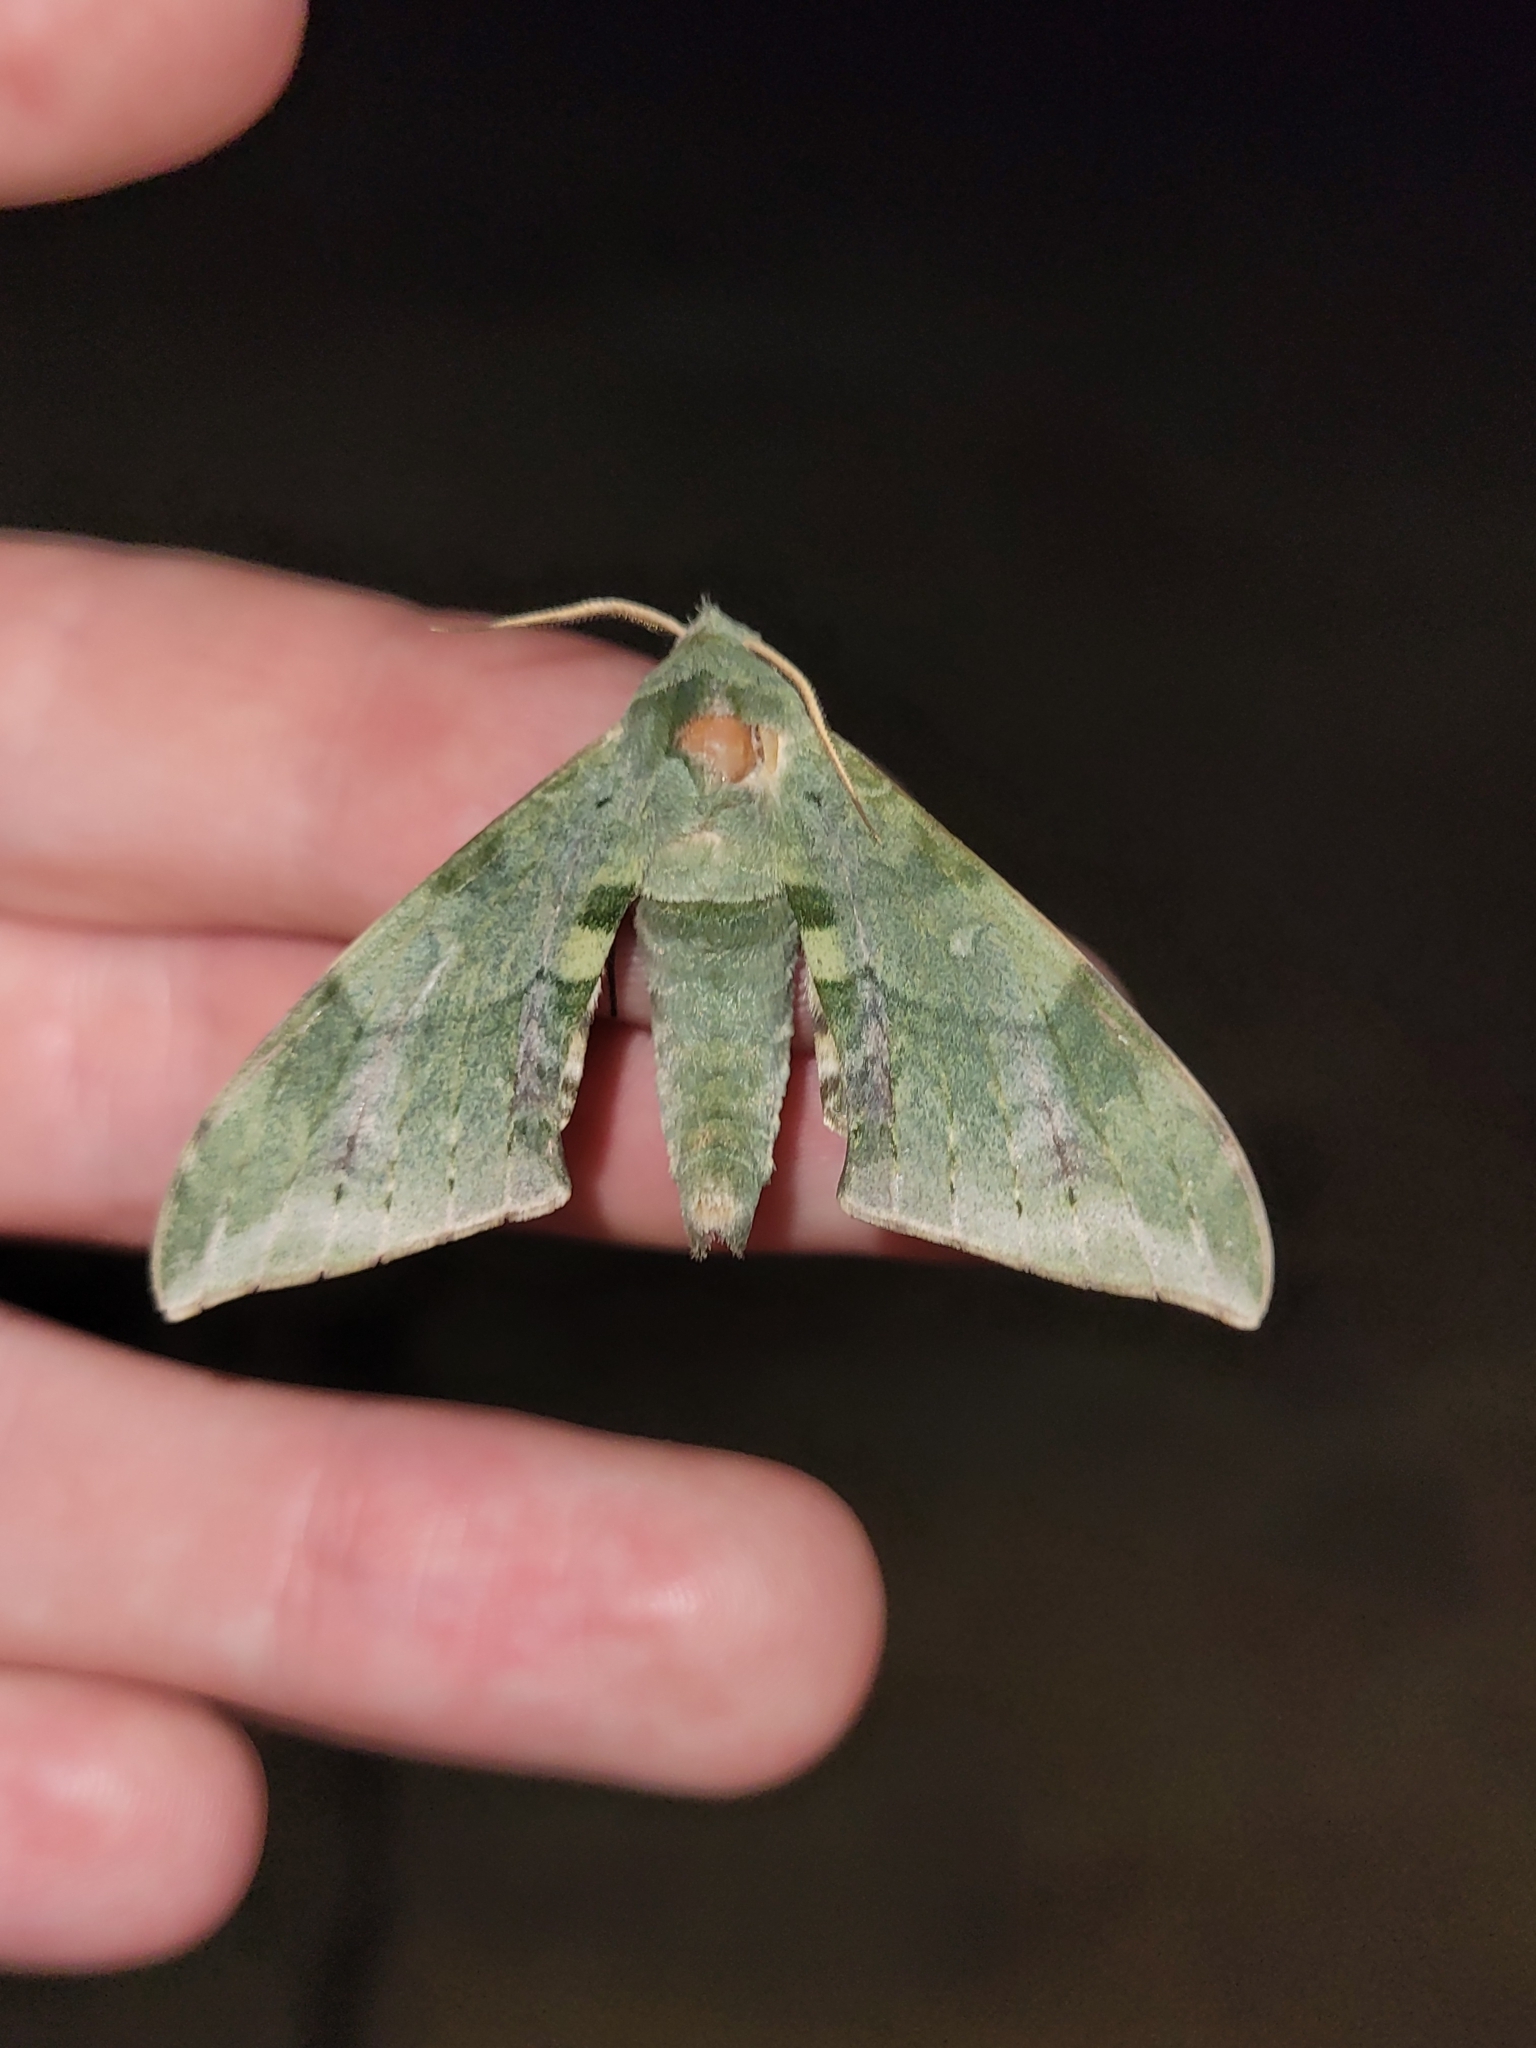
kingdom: Animalia
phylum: Arthropoda
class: Insecta
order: Lepidoptera
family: Sphingidae
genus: Chloroclanis
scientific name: Chloroclanis virescens
